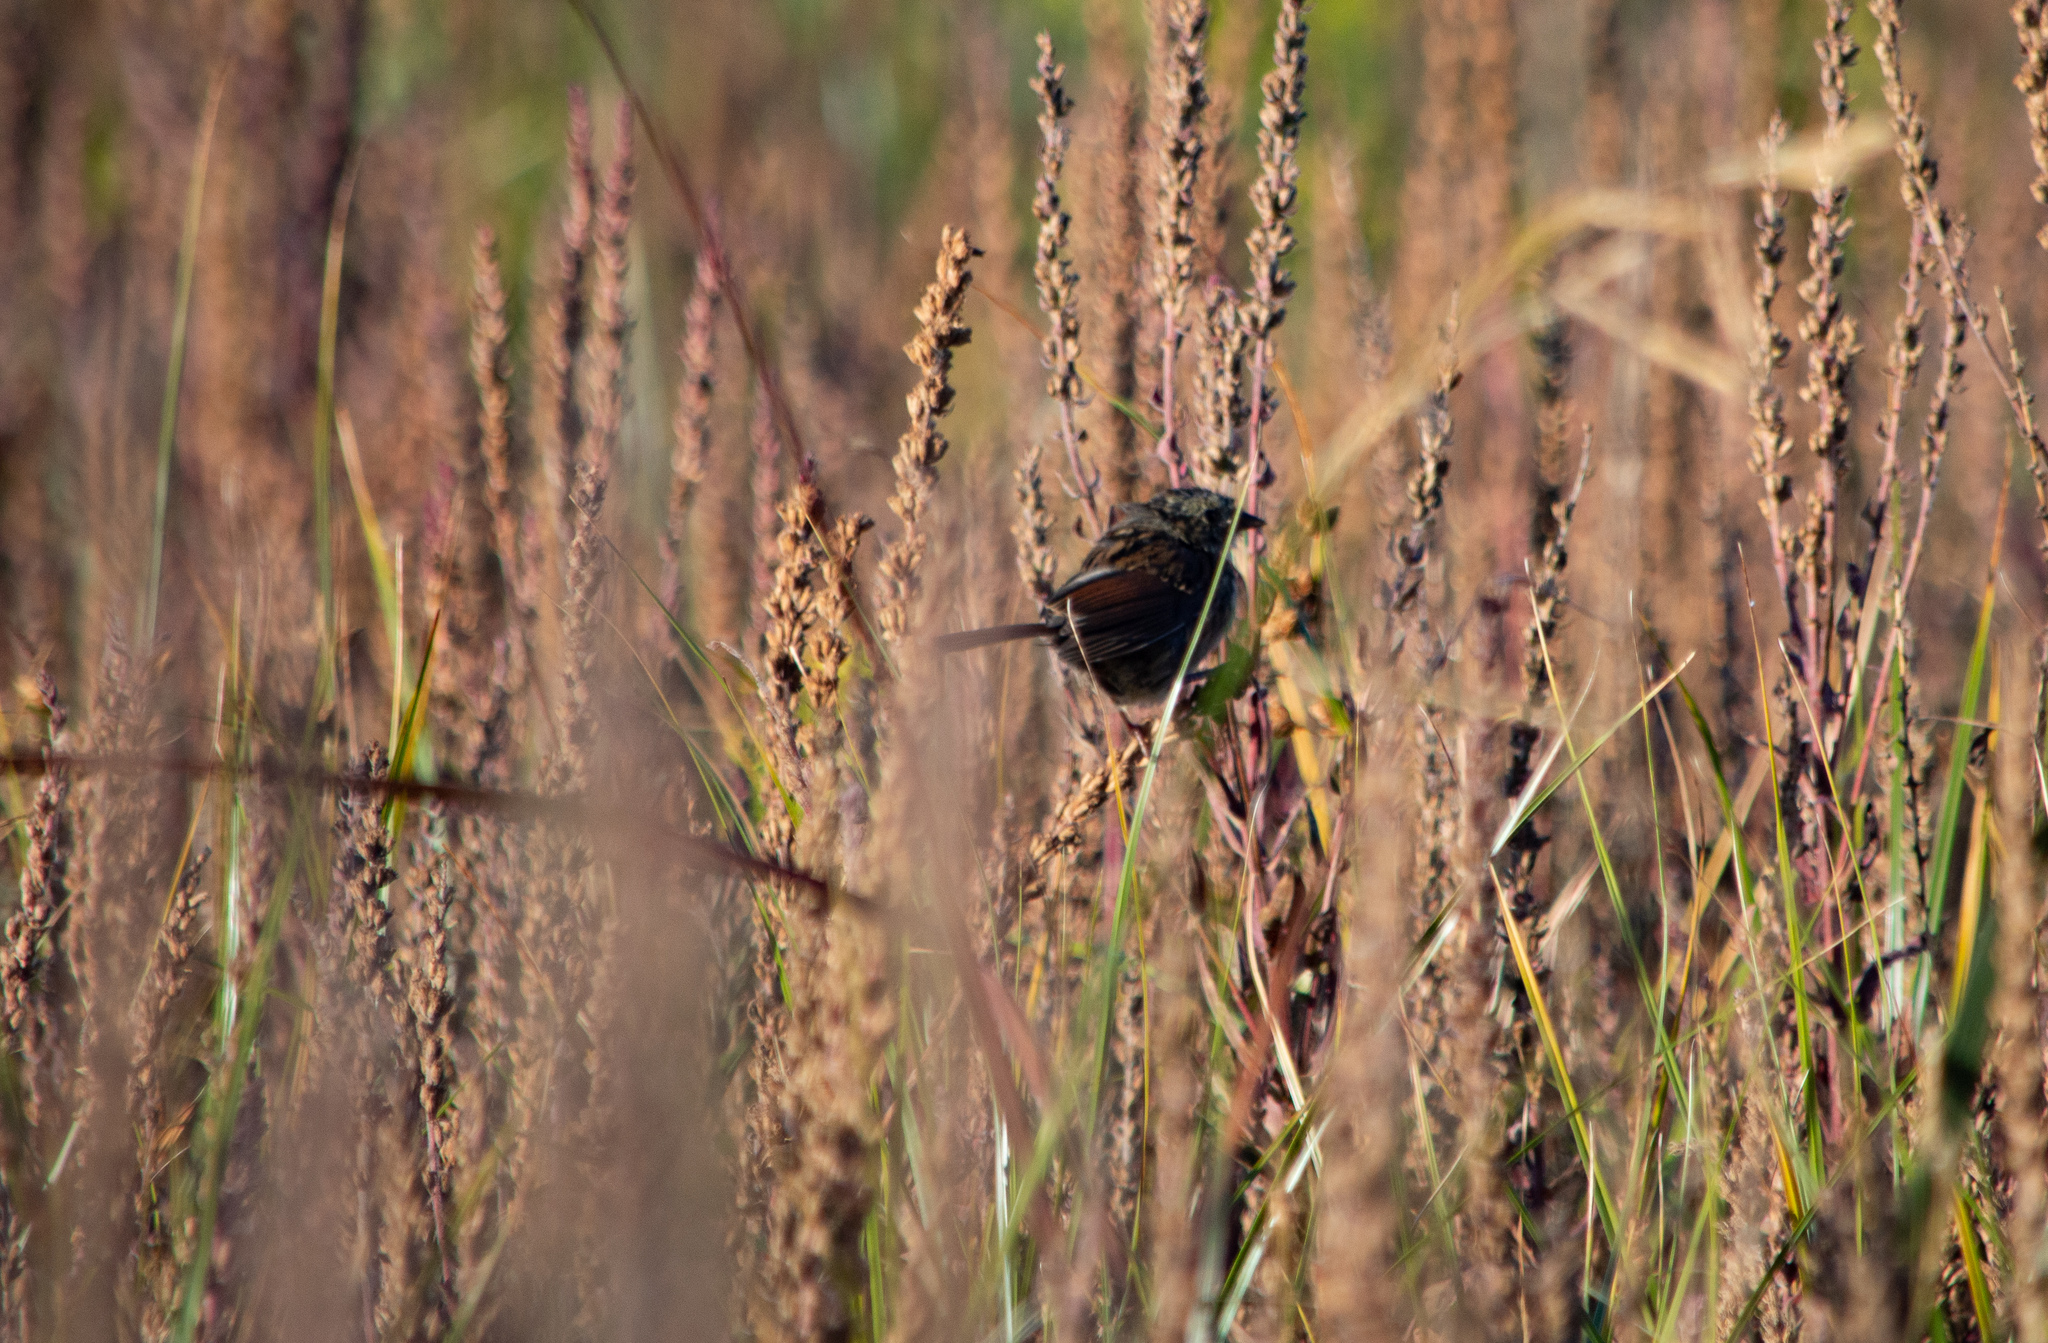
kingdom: Animalia
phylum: Chordata
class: Aves
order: Passeriformes
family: Passerellidae
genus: Melospiza
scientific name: Melospiza georgiana
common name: Swamp sparrow
